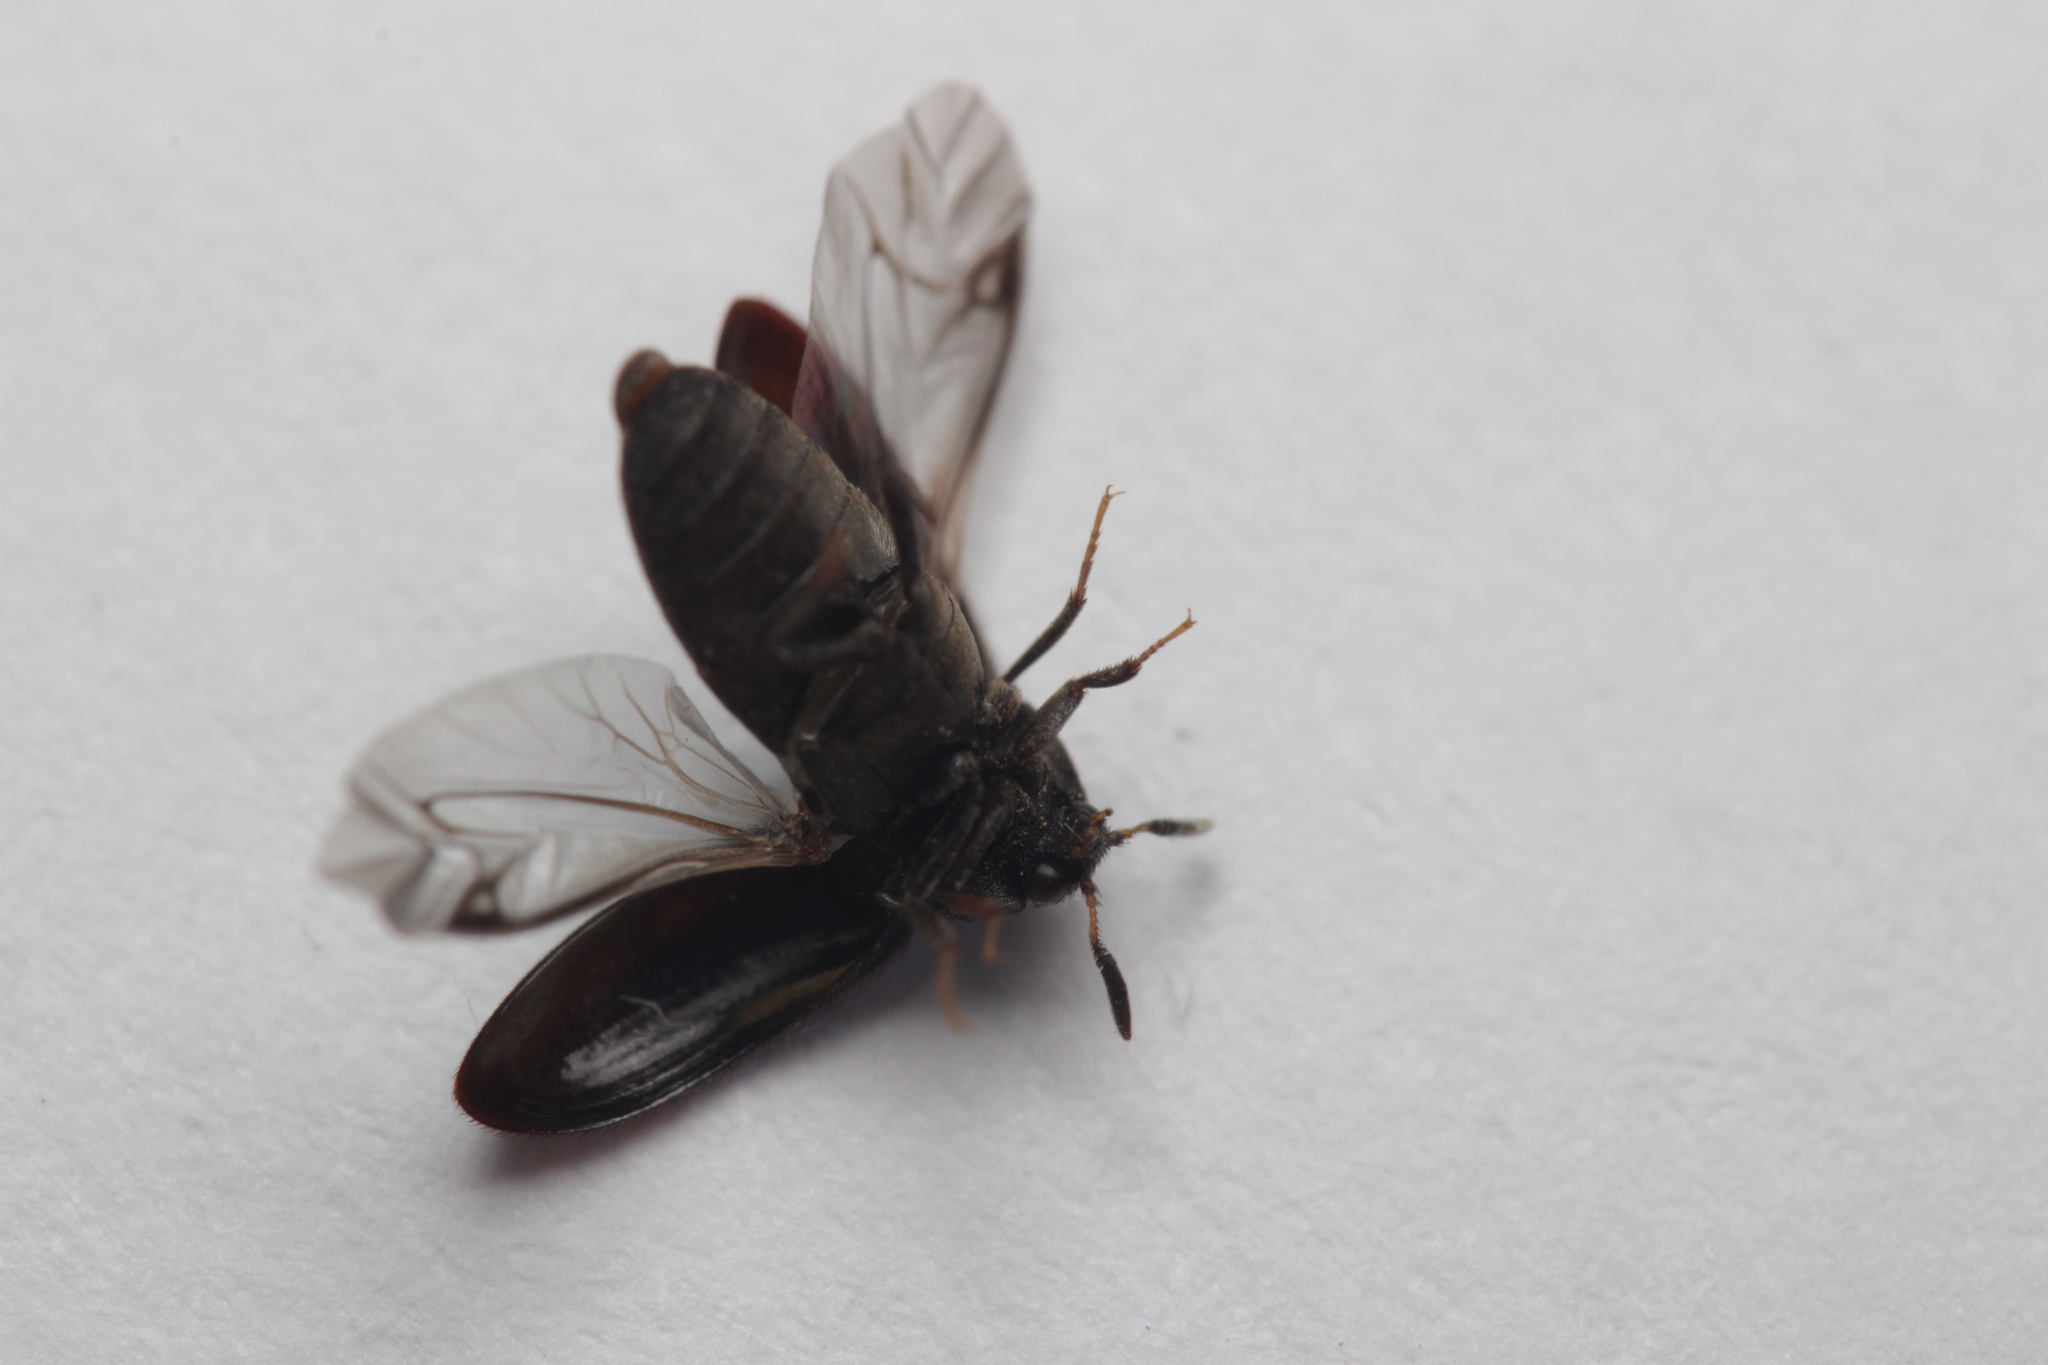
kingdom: Animalia
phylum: Arthropoda
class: Insecta
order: Coleoptera
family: Dermestidae
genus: Attagenus
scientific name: Attagenus pellio
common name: Two-spotted carpet beetle
